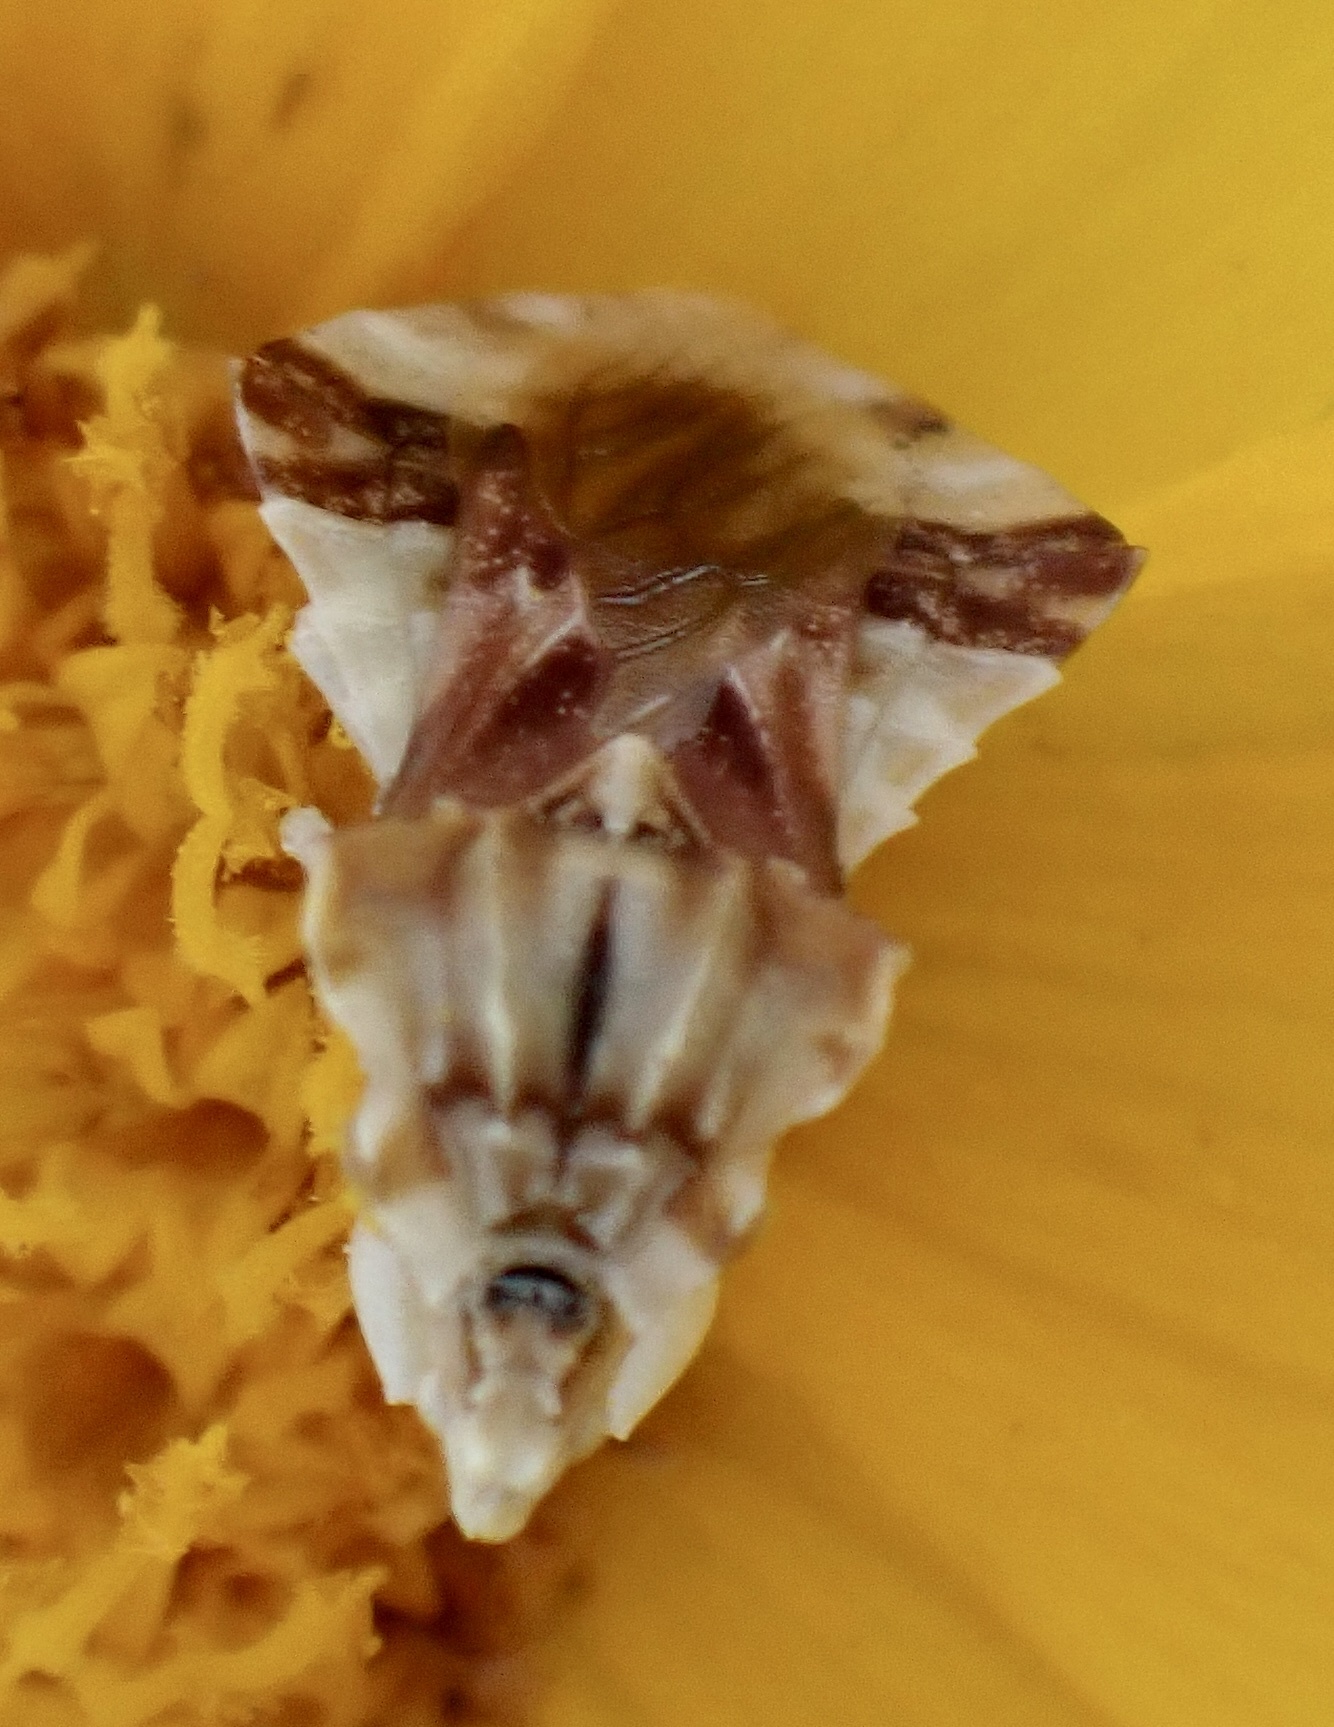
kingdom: Animalia
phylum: Arthropoda
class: Insecta
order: Hemiptera
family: Reduviidae
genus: Phymata
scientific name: Phymata fasciata
